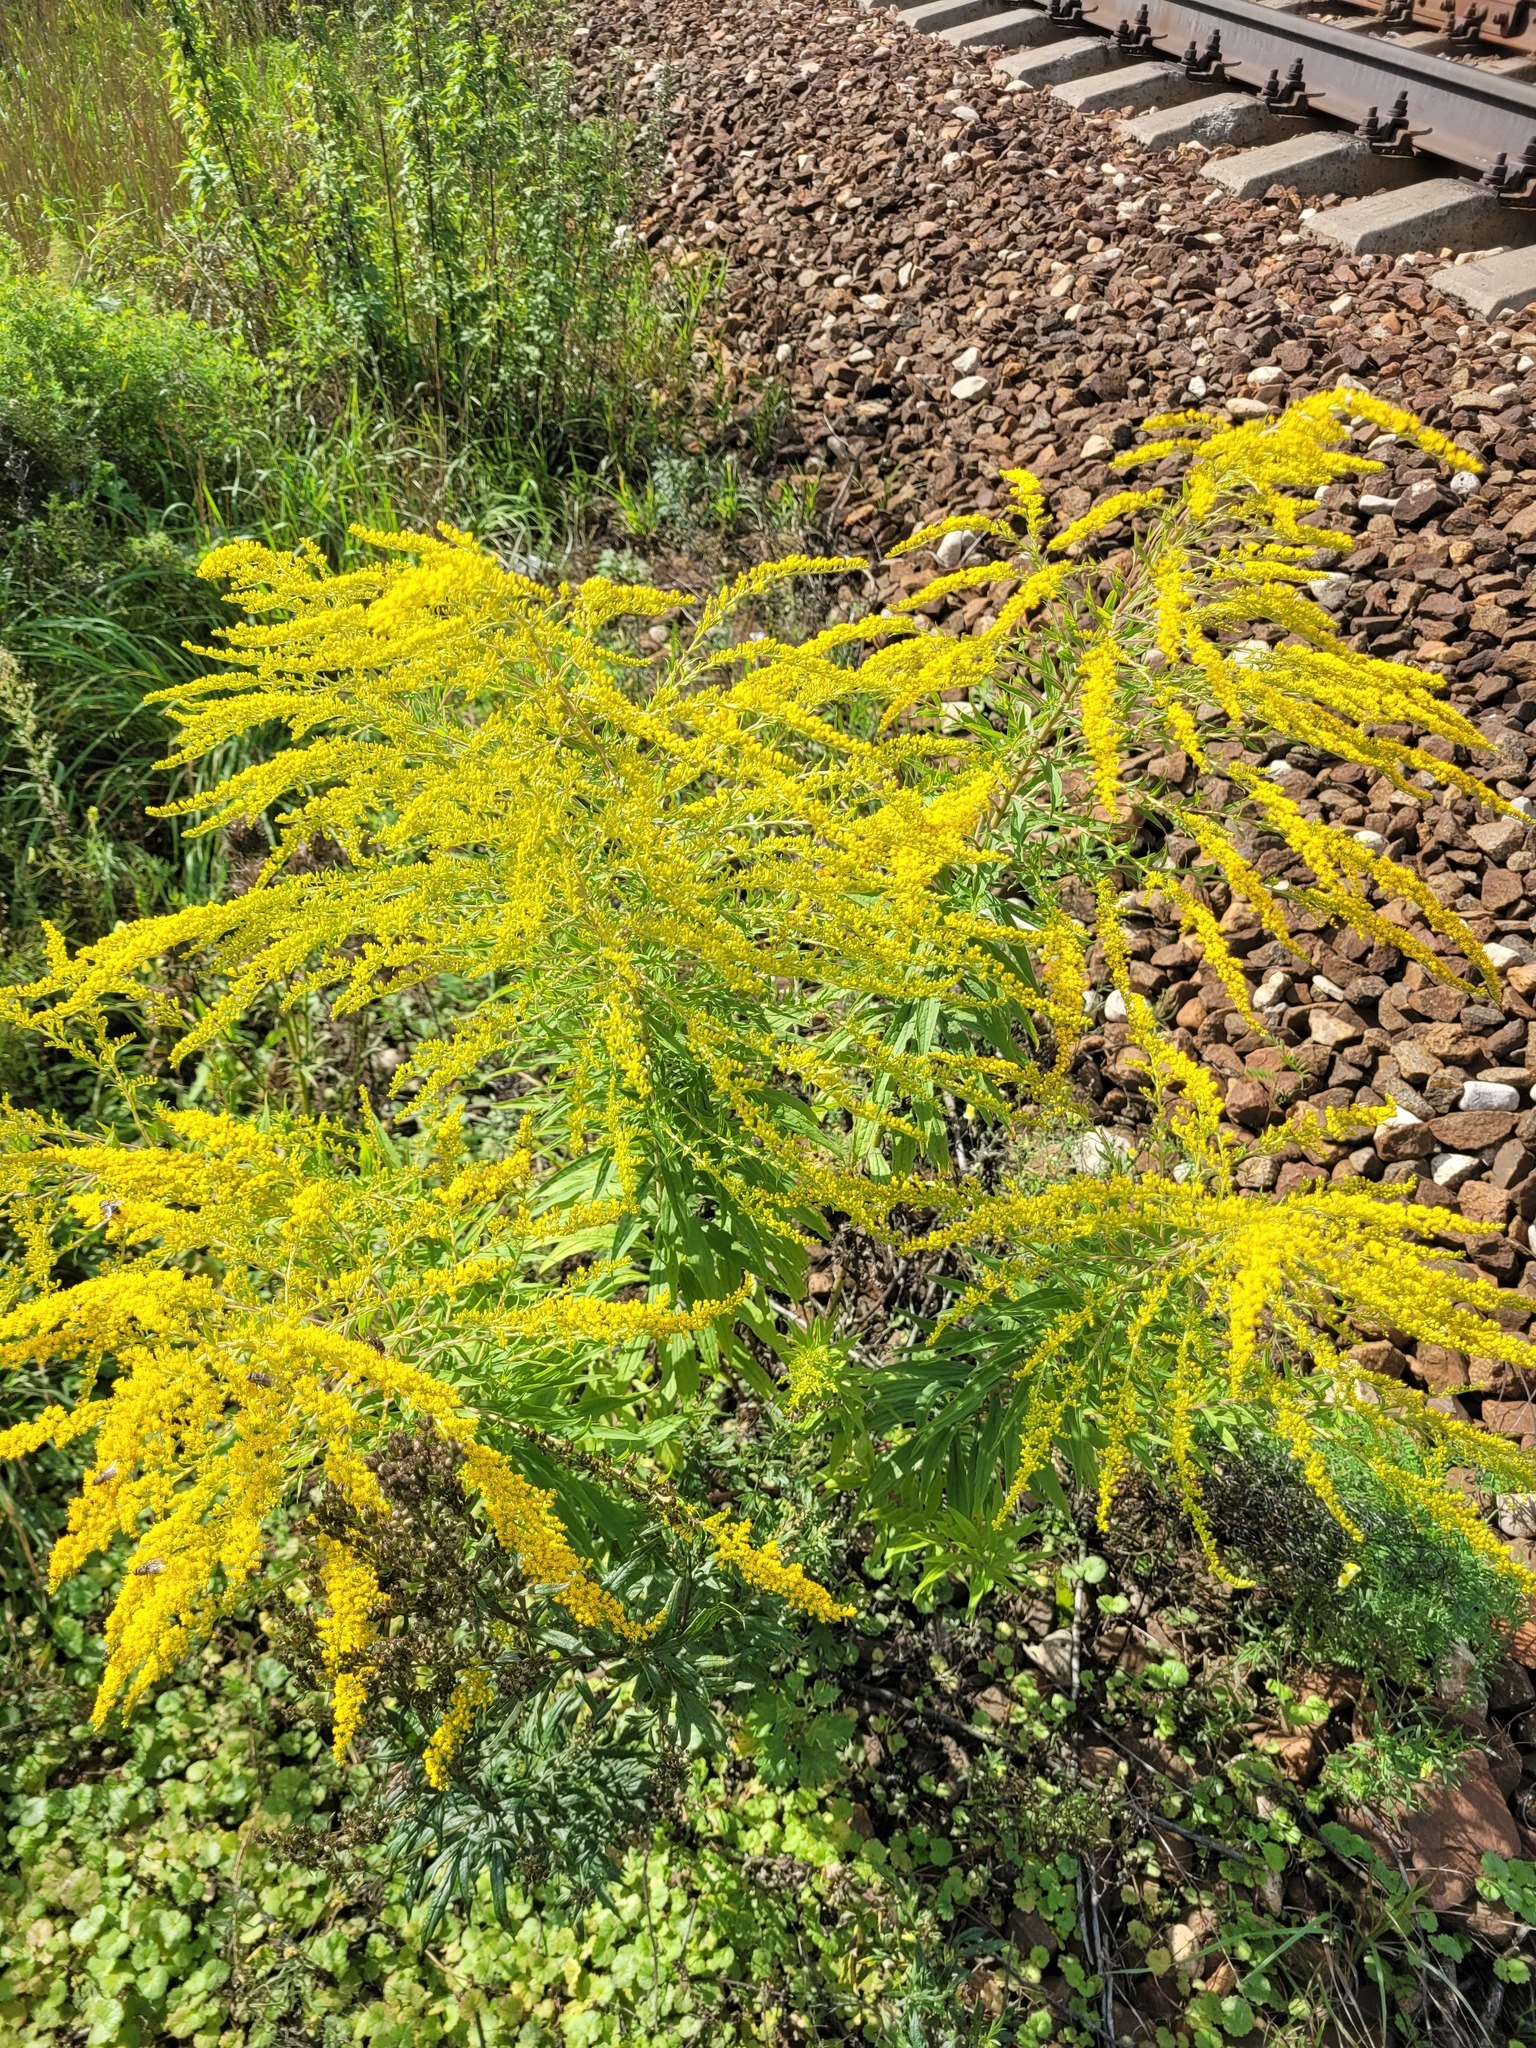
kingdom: Plantae
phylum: Tracheophyta
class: Magnoliopsida
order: Asterales
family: Asteraceae
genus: Solidago
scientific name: Solidago canadensis
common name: Canada goldenrod
